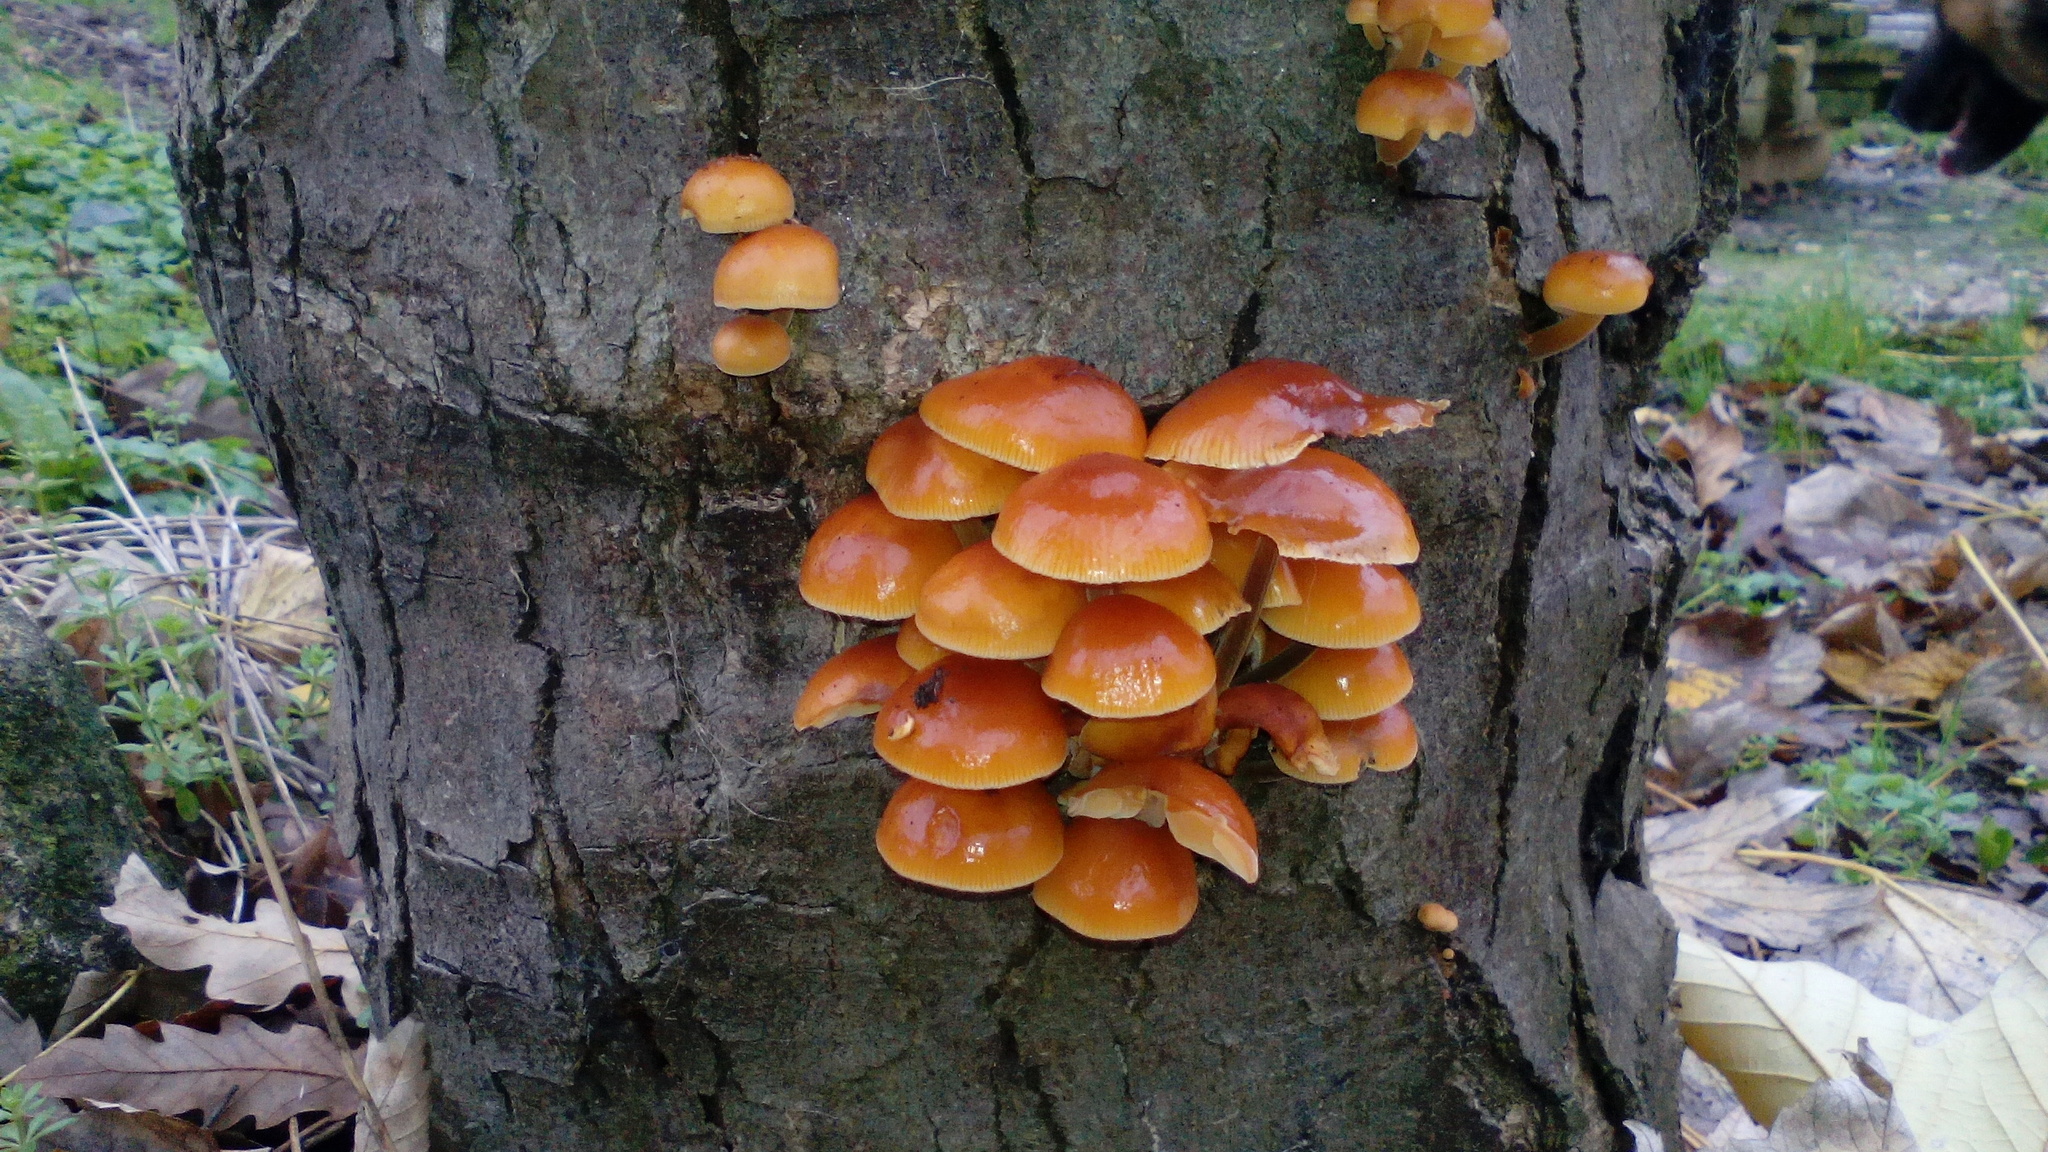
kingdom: Fungi
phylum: Basidiomycota
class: Agaricomycetes
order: Agaricales
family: Physalacriaceae
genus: Flammulina
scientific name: Flammulina
